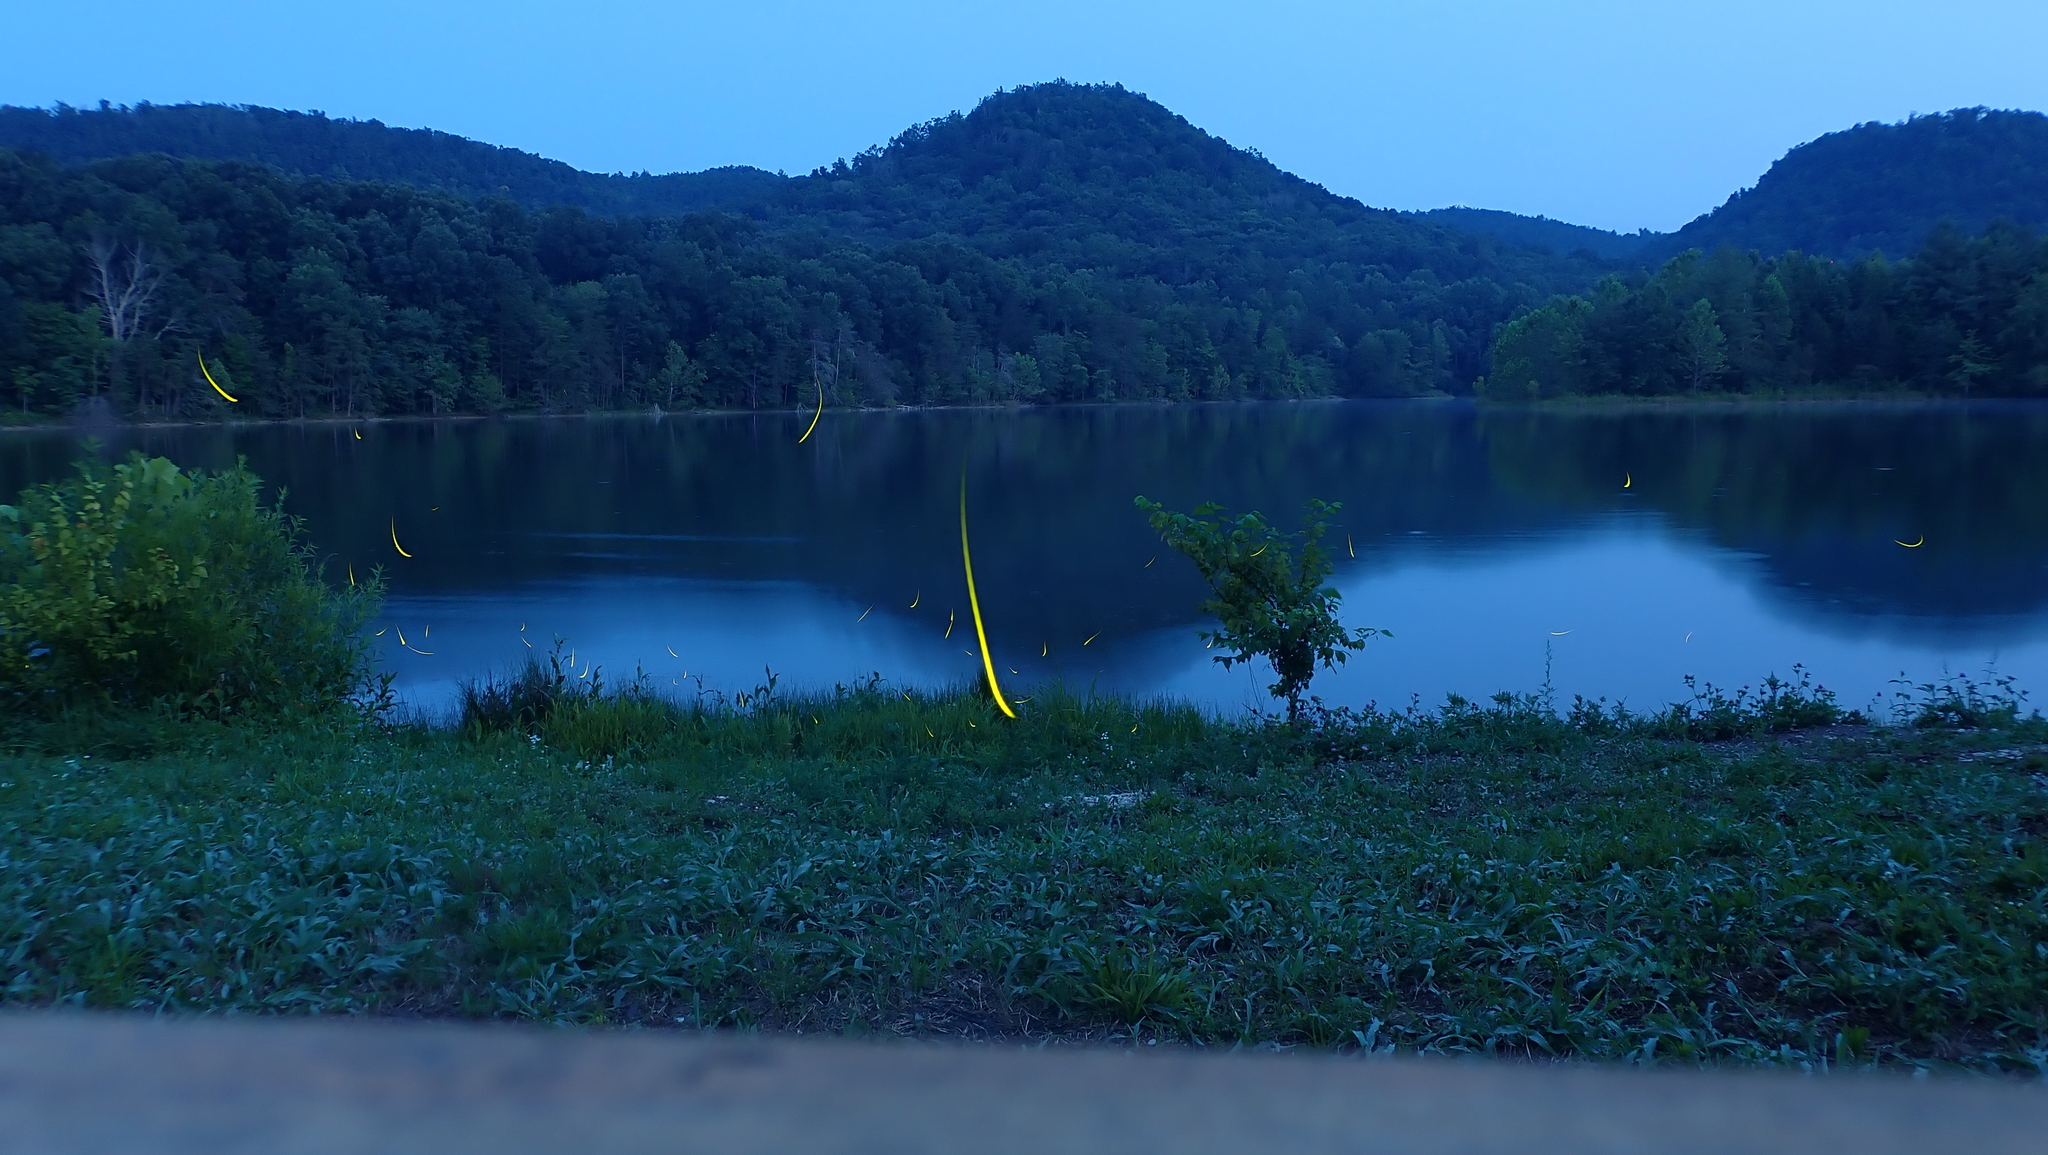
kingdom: Animalia
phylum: Arthropoda
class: Insecta
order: Coleoptera
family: Lampyridae
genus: Photinus
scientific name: Photinus pyralis
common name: Big dipper firefly
